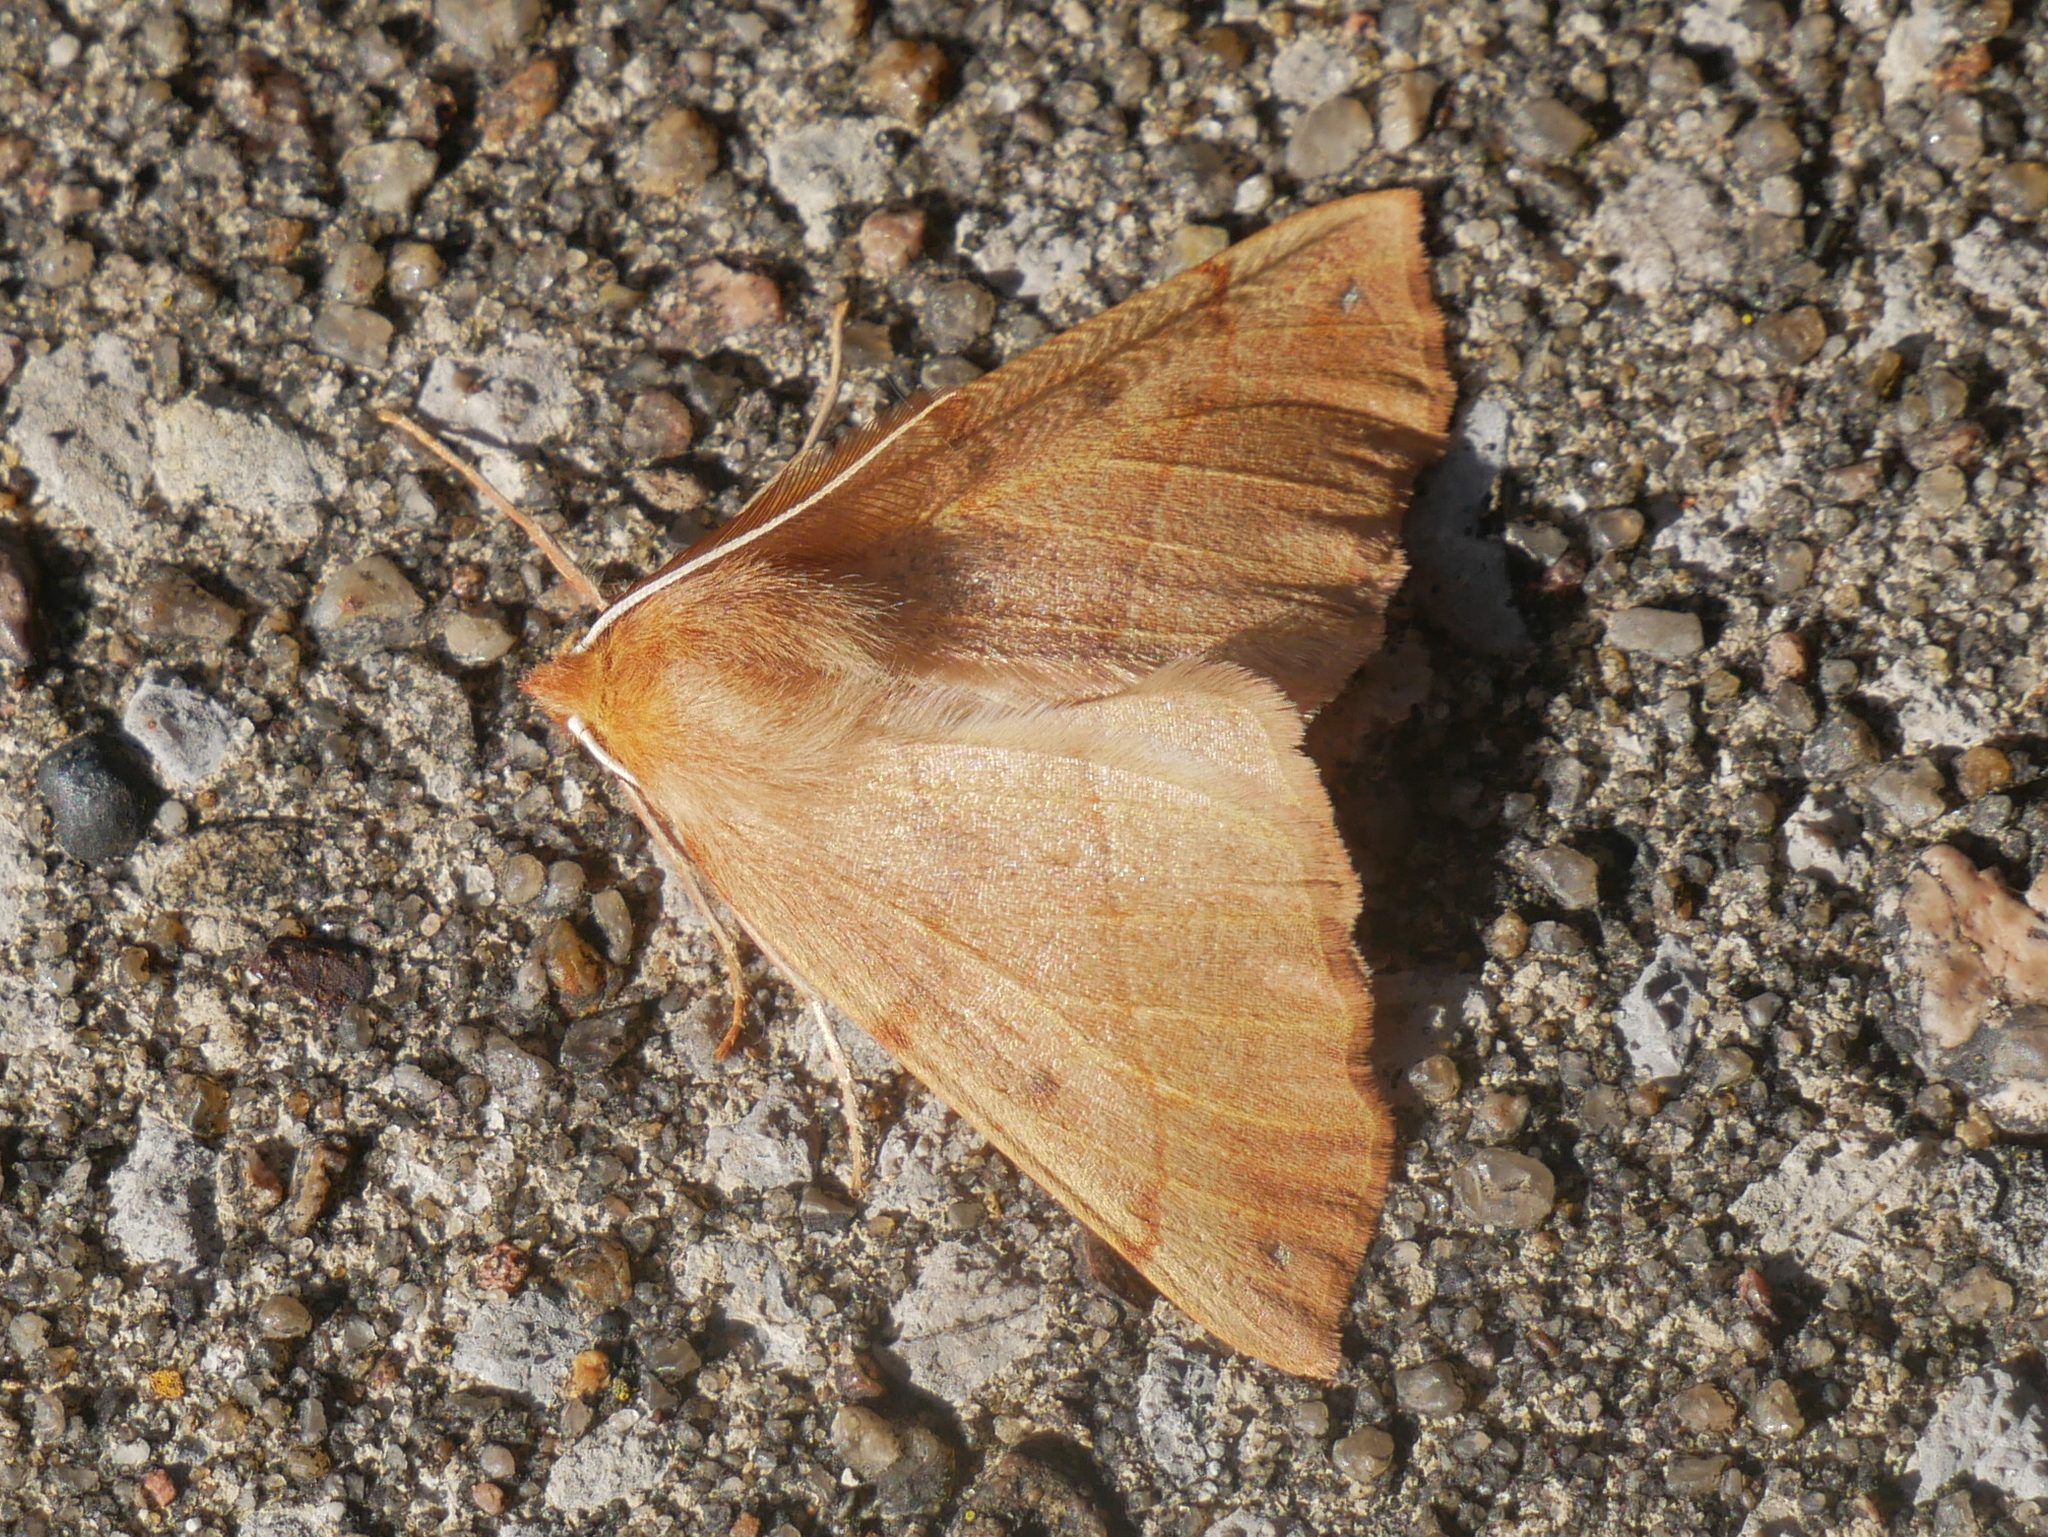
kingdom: Animalia
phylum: Arthropoda
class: Insecta
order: Lepidoptera
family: Geometridae
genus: Colotois
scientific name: Colotois pennaria
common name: Feathered thorn
